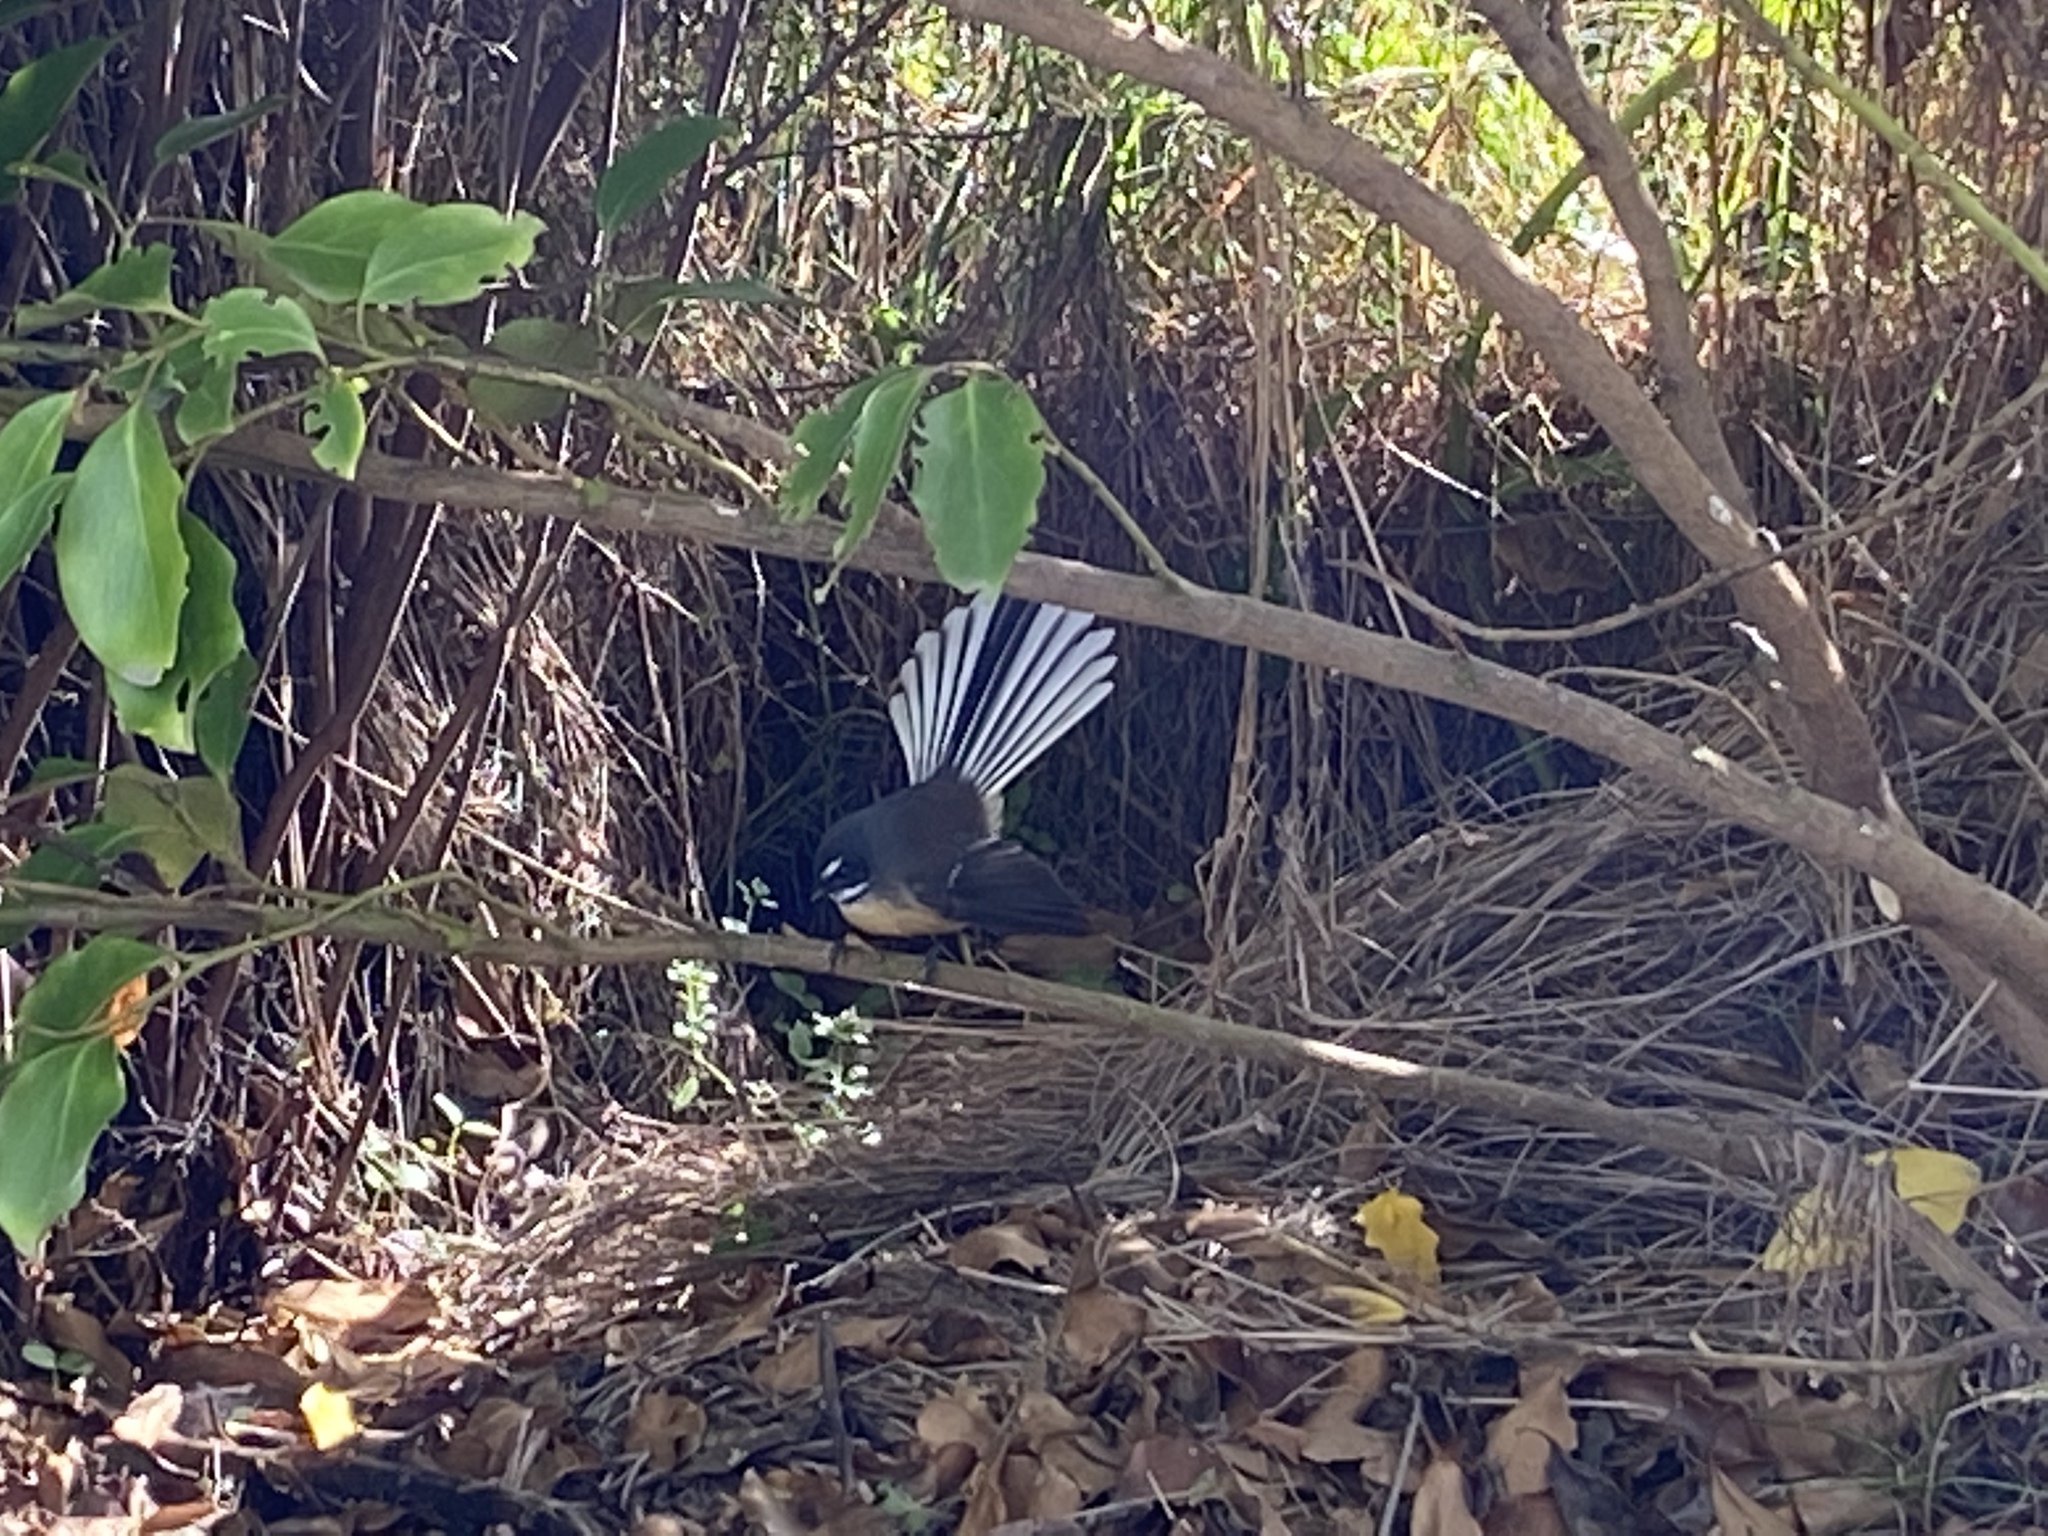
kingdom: Animalia
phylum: Chordata
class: Aves
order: Passeriformes
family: Rhipiduridae
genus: Rhipidura
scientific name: Rhipidura fuliginosa
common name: New zealand fantail
